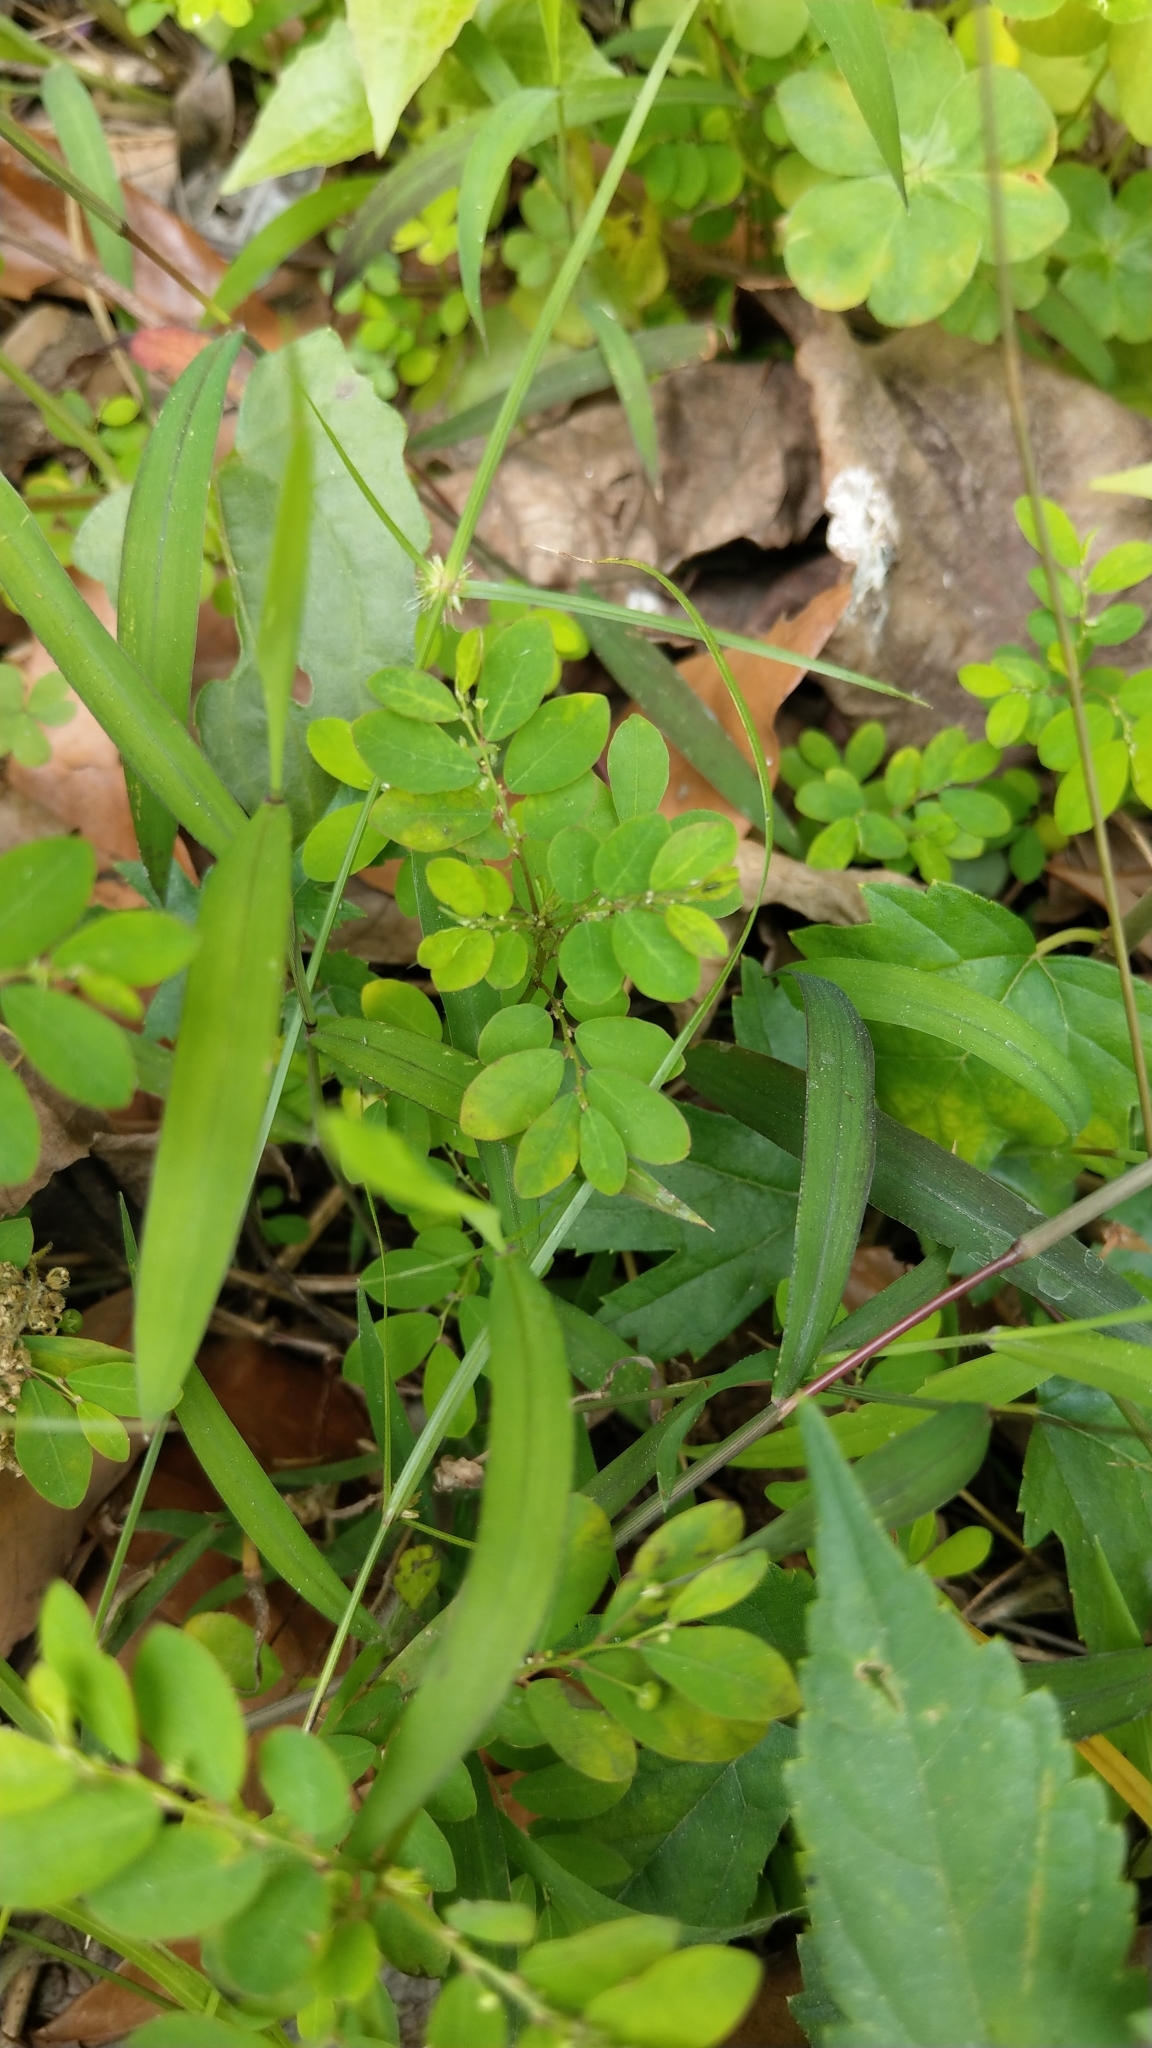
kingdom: Plantae
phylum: Tracheophyta
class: Magnoliopsida
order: Malpighiales
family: Phyllanthaceae
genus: Phyllanthus
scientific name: Phyllanthus tenellus
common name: Mascarene island leaf-flower
